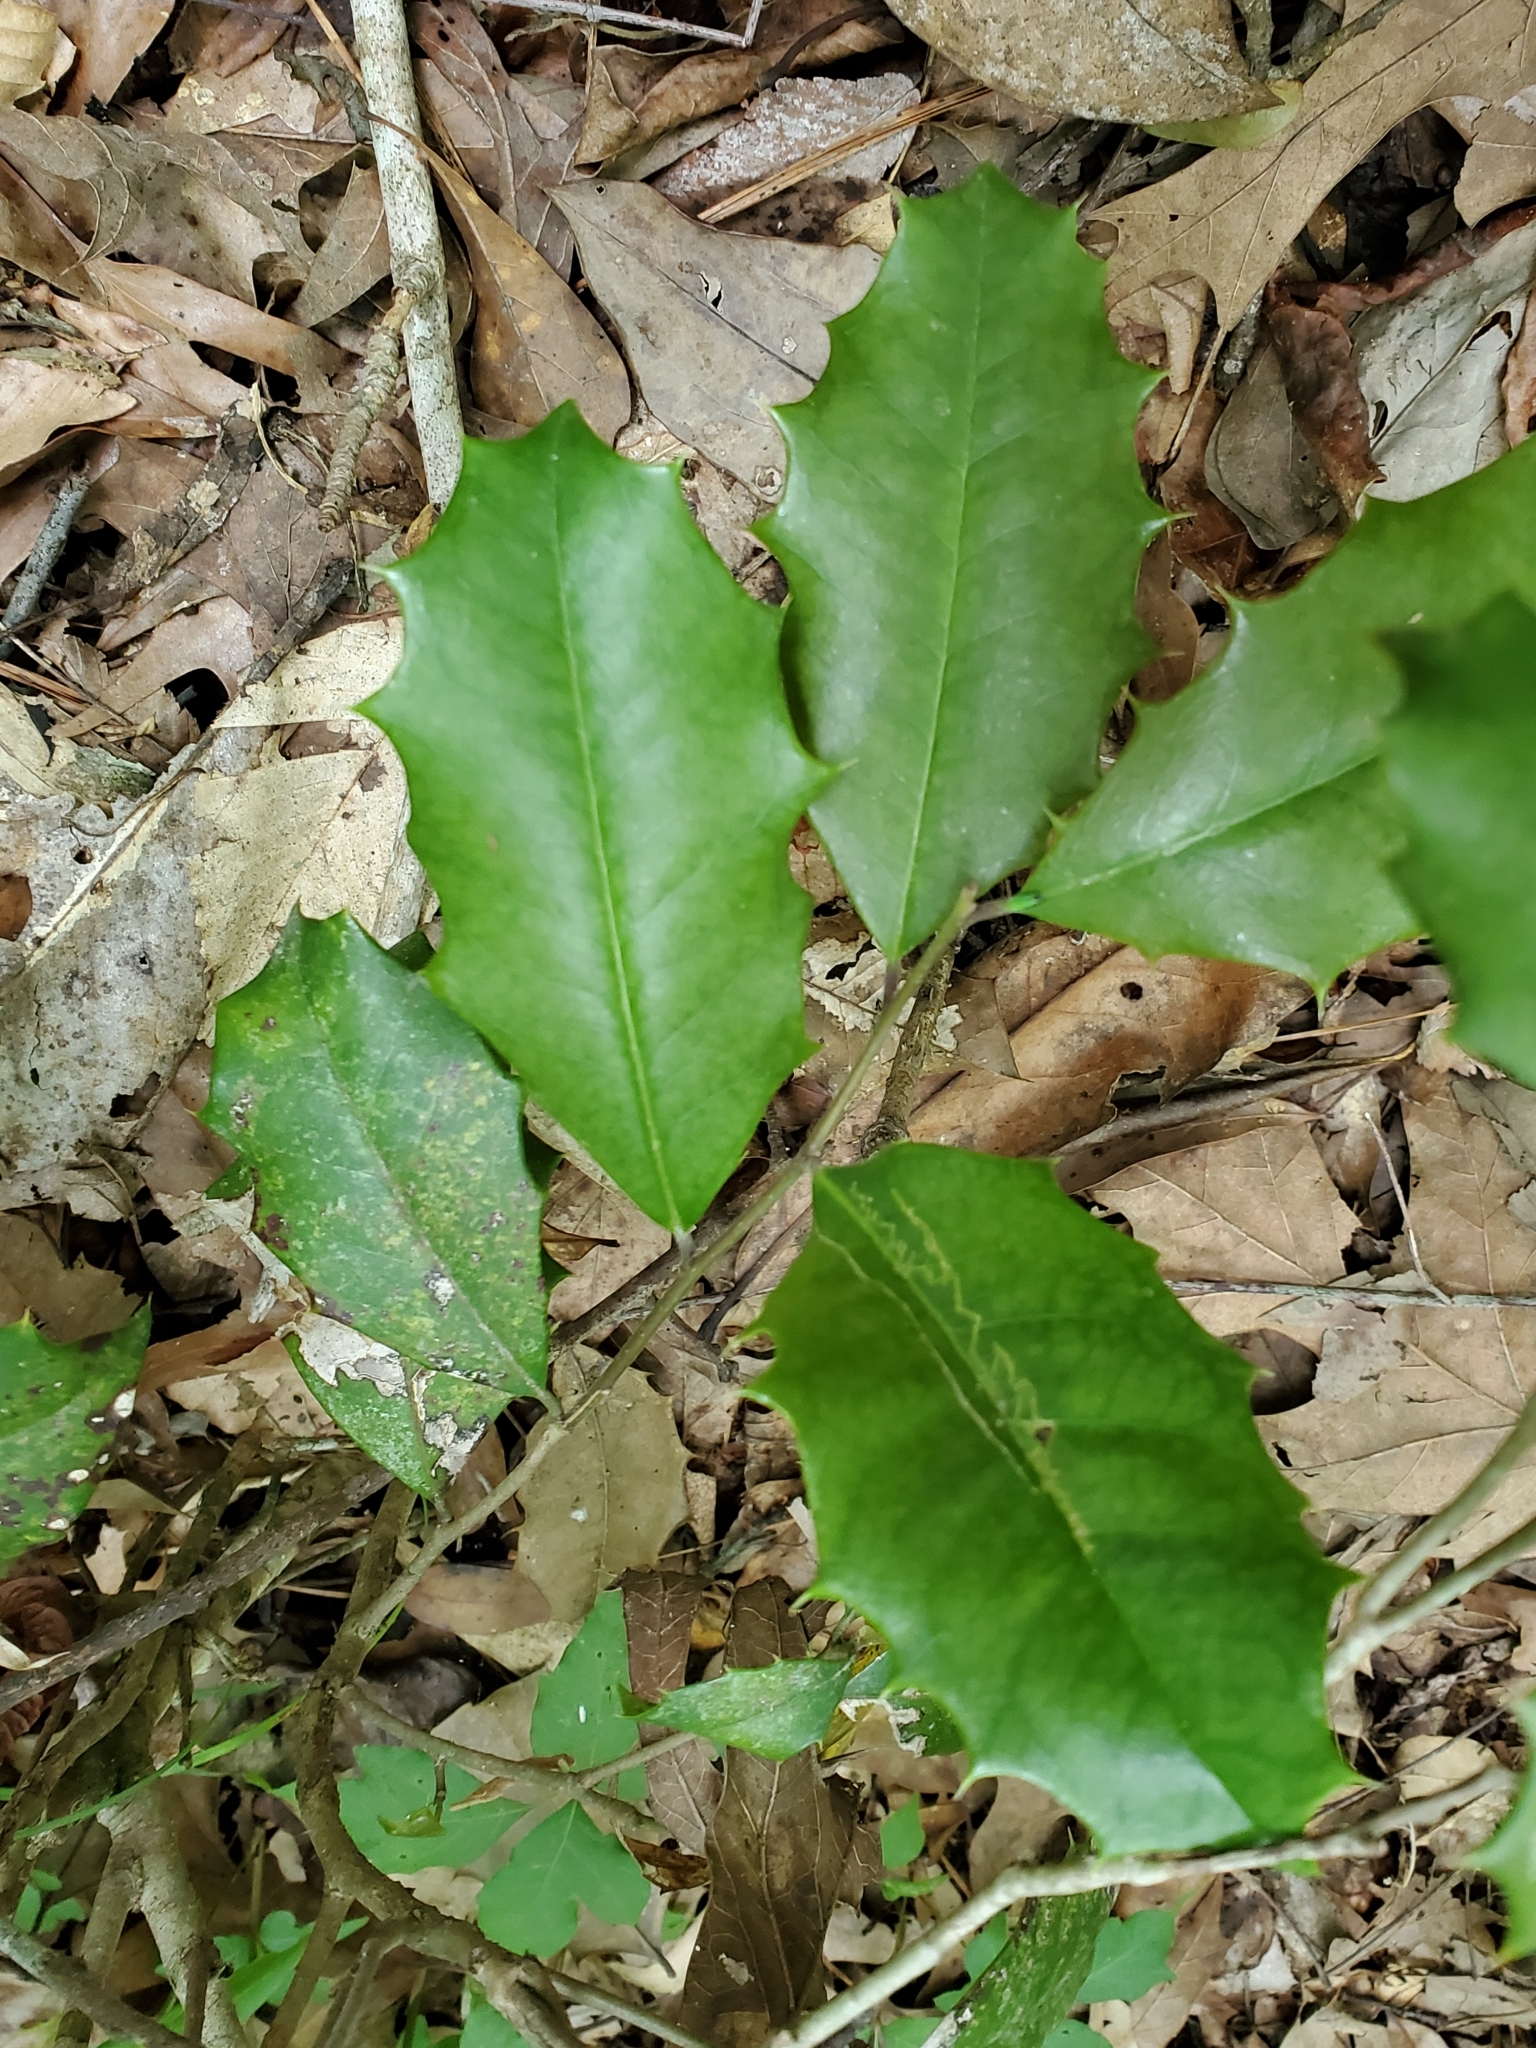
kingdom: Plantae
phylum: Tracheophyta
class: Magnoliopsida
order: Aquifoliales
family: Aquifoliaceae
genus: Ilex
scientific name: Ilex opaca
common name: American holly
